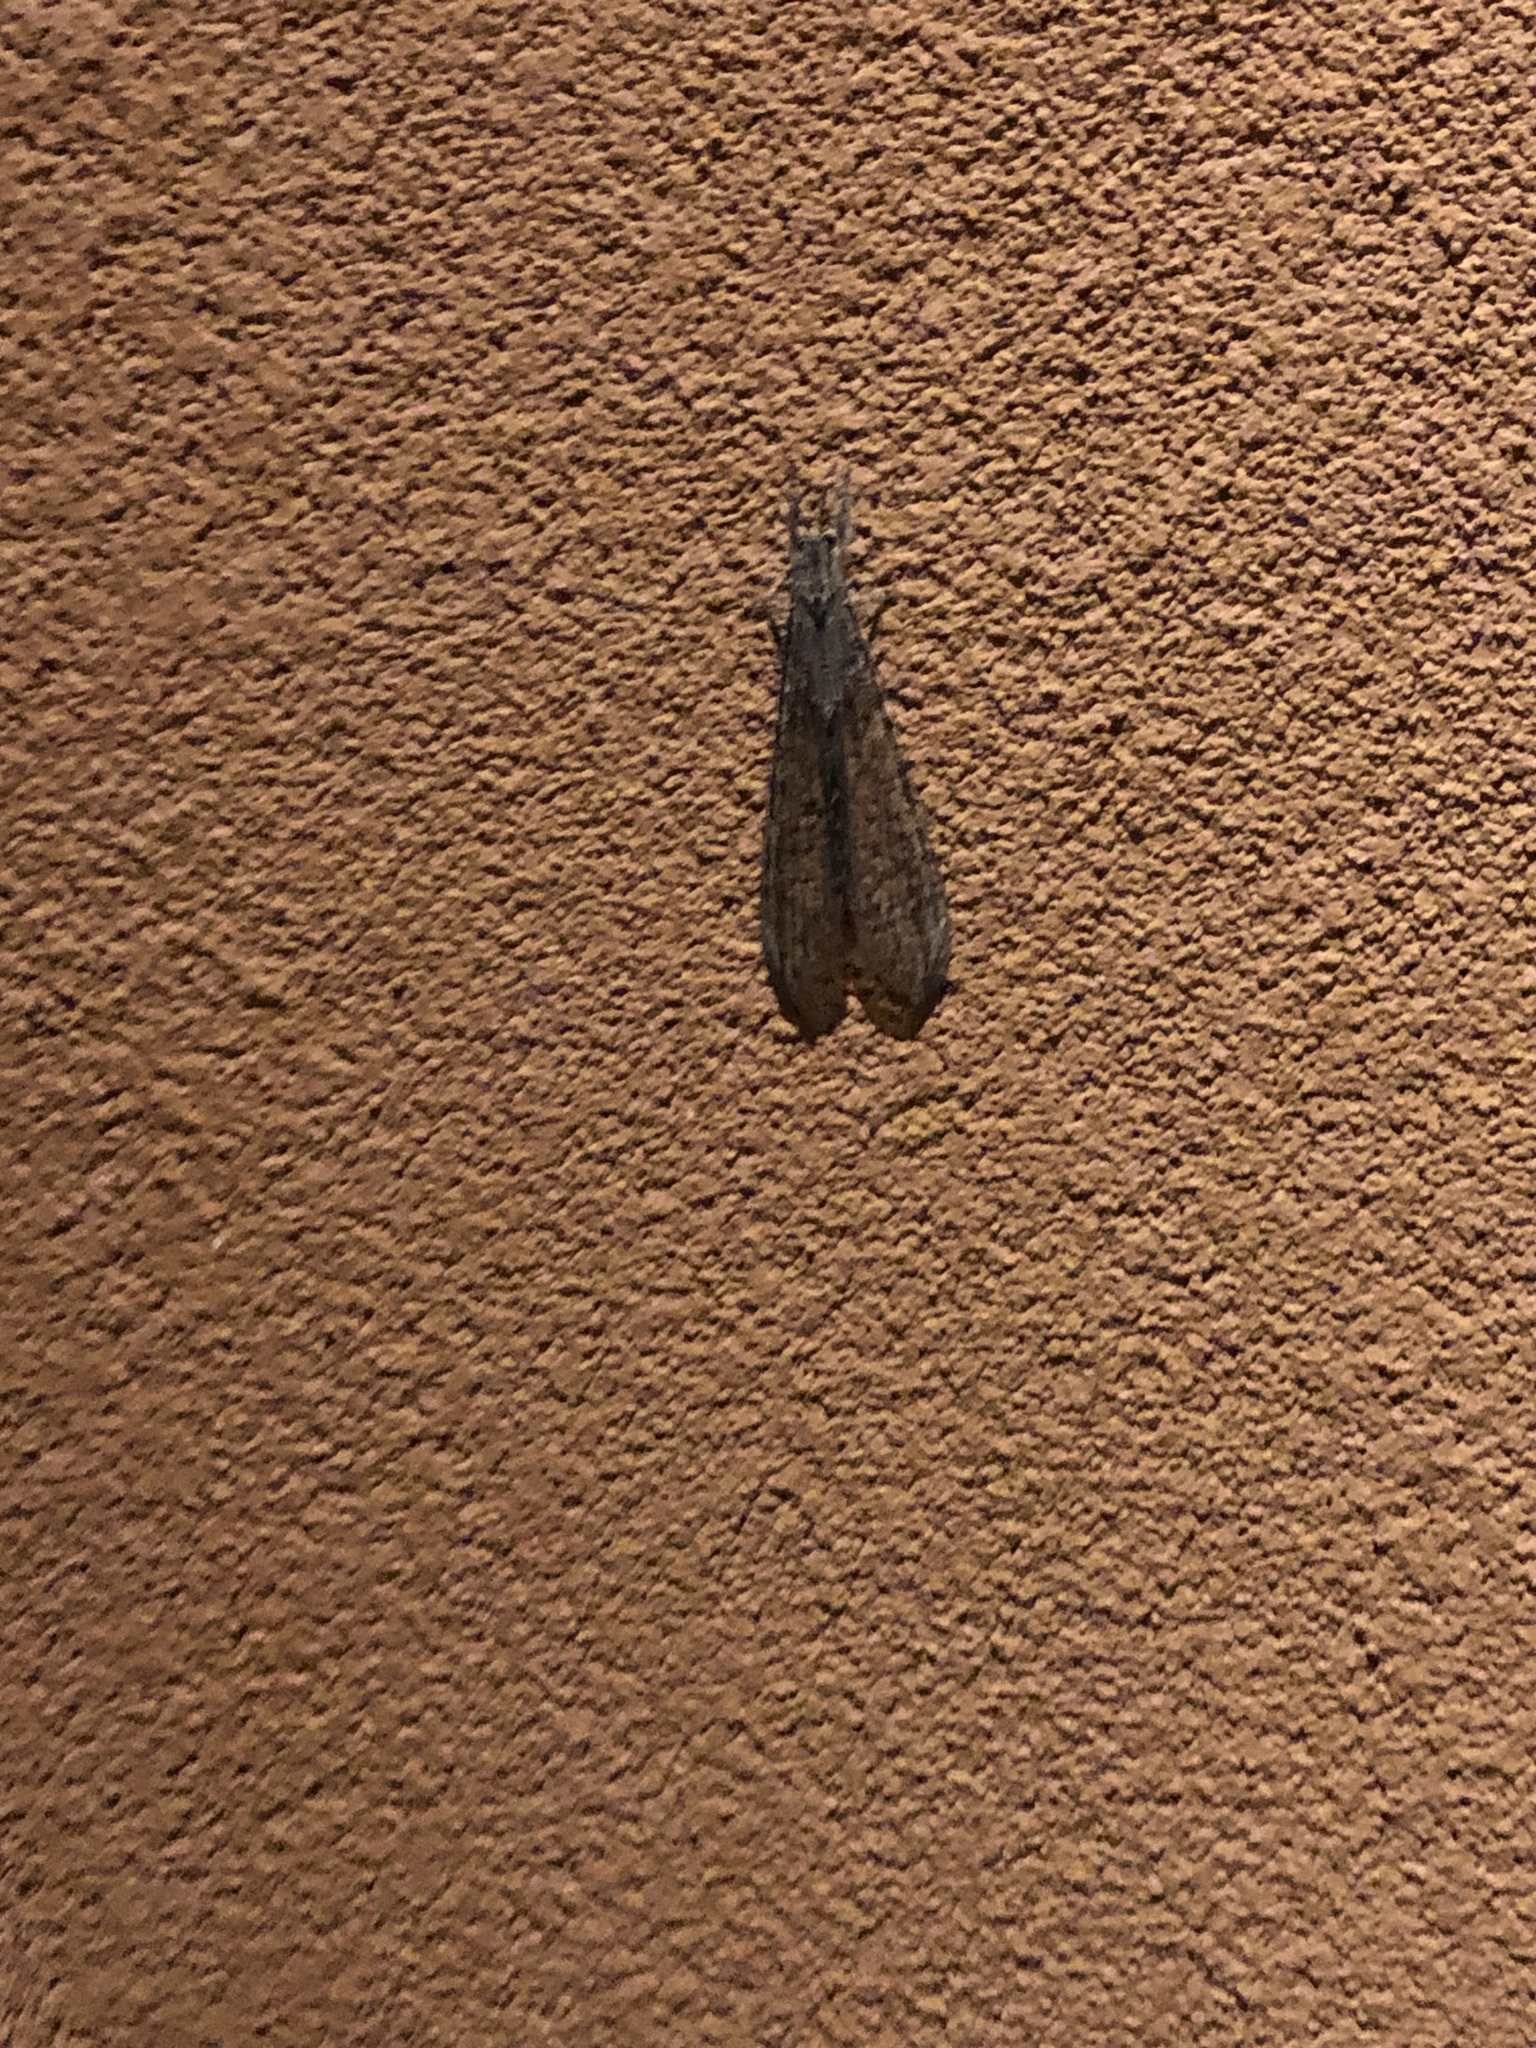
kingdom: Animalia
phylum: Arthropoda
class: Insecta
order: Neuroptera
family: Myrmeleontidae
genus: Vella
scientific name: Vella fallax
